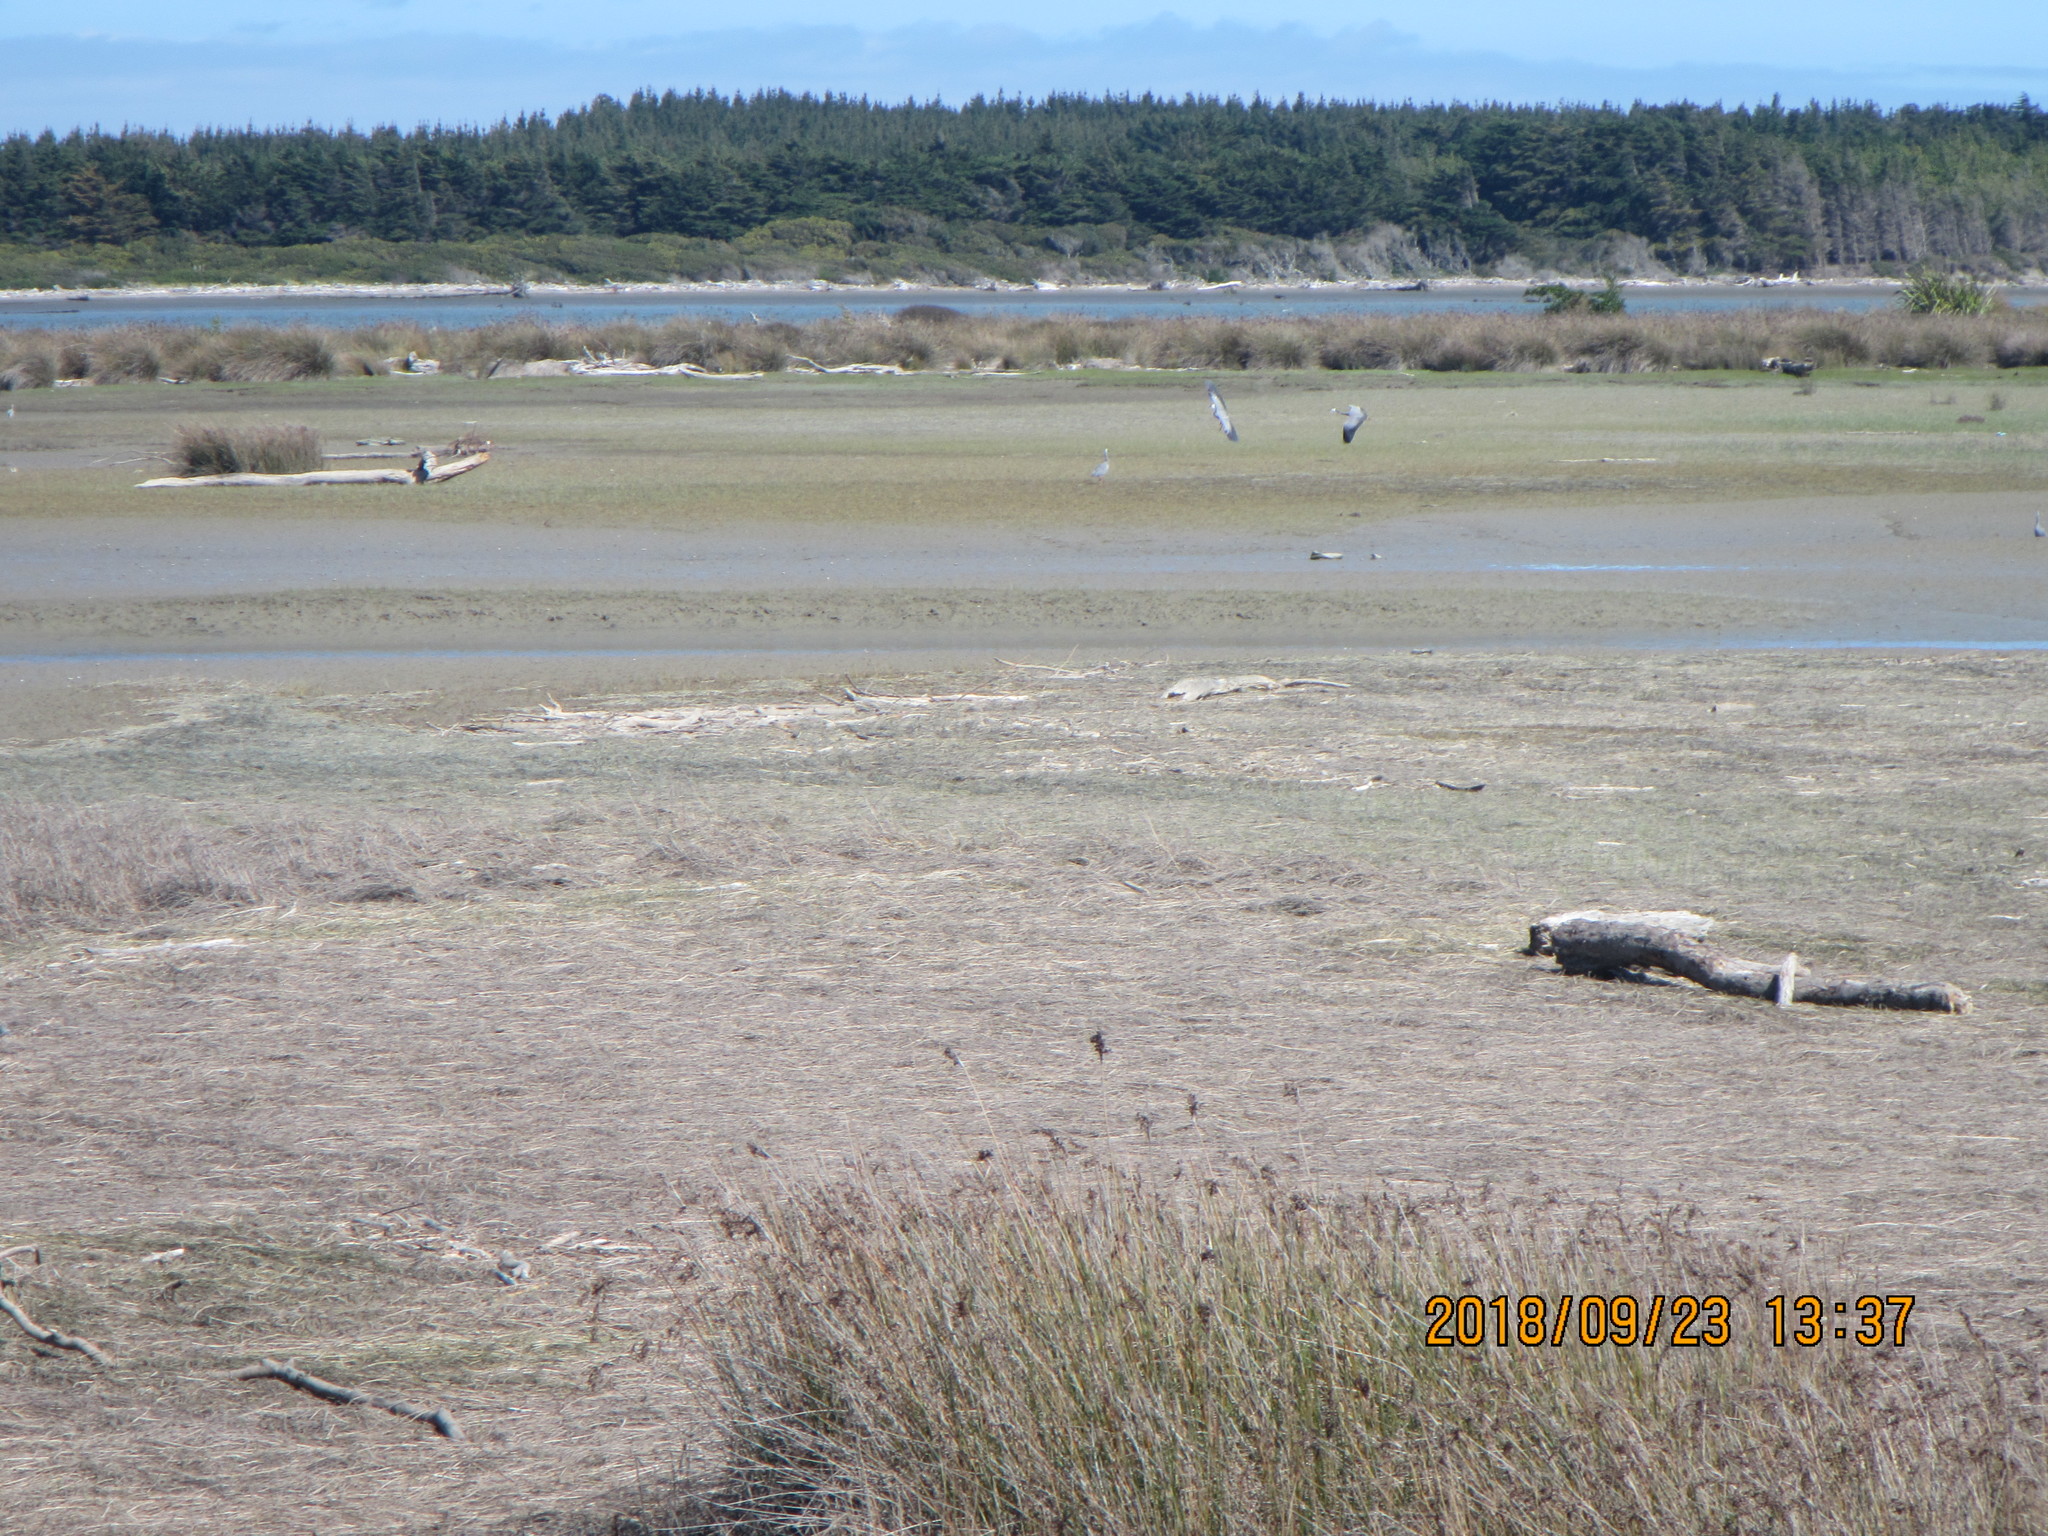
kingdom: Animalia
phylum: Chordata
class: Aves
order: Pelecaniformes
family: Ardeidae
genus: Egretta
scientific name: Egretta novaehollandiae
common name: White-faced heron
